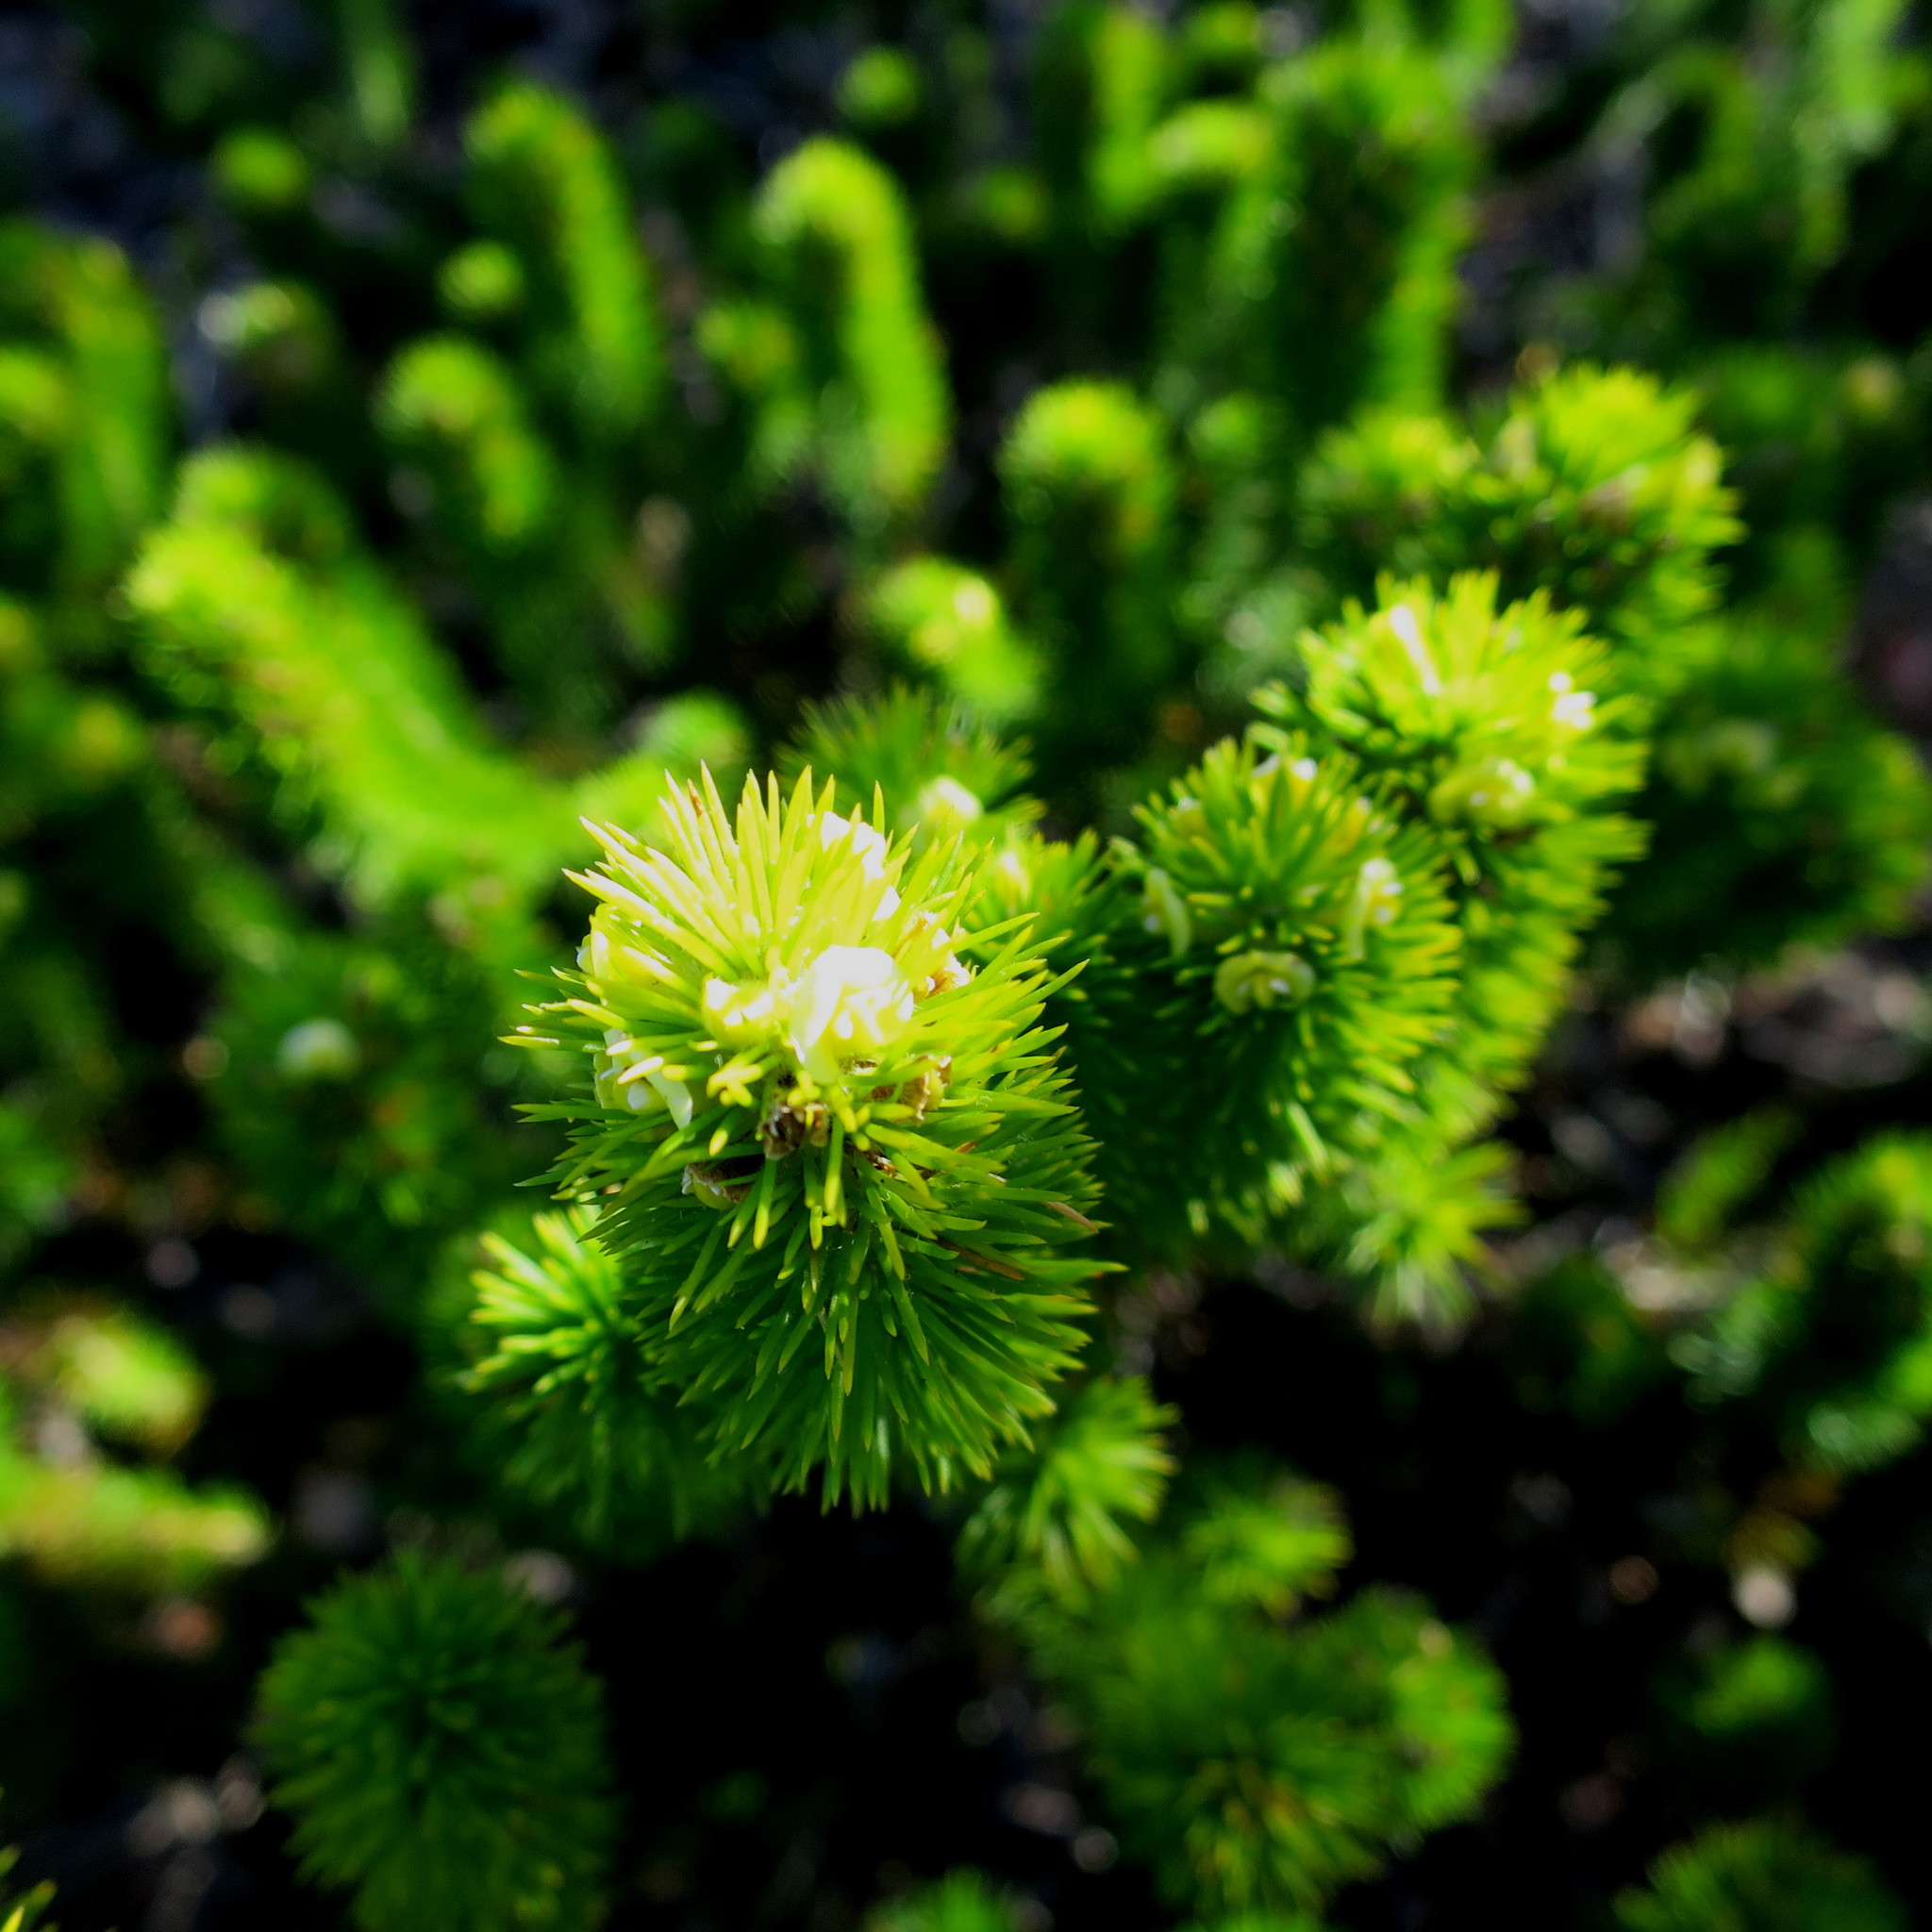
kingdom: Plantae
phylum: Tracheophyta
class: Magnoliopsida
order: Fabales
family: Fabaceae
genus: Aspalathus
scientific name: Aspalathus alopecurus
